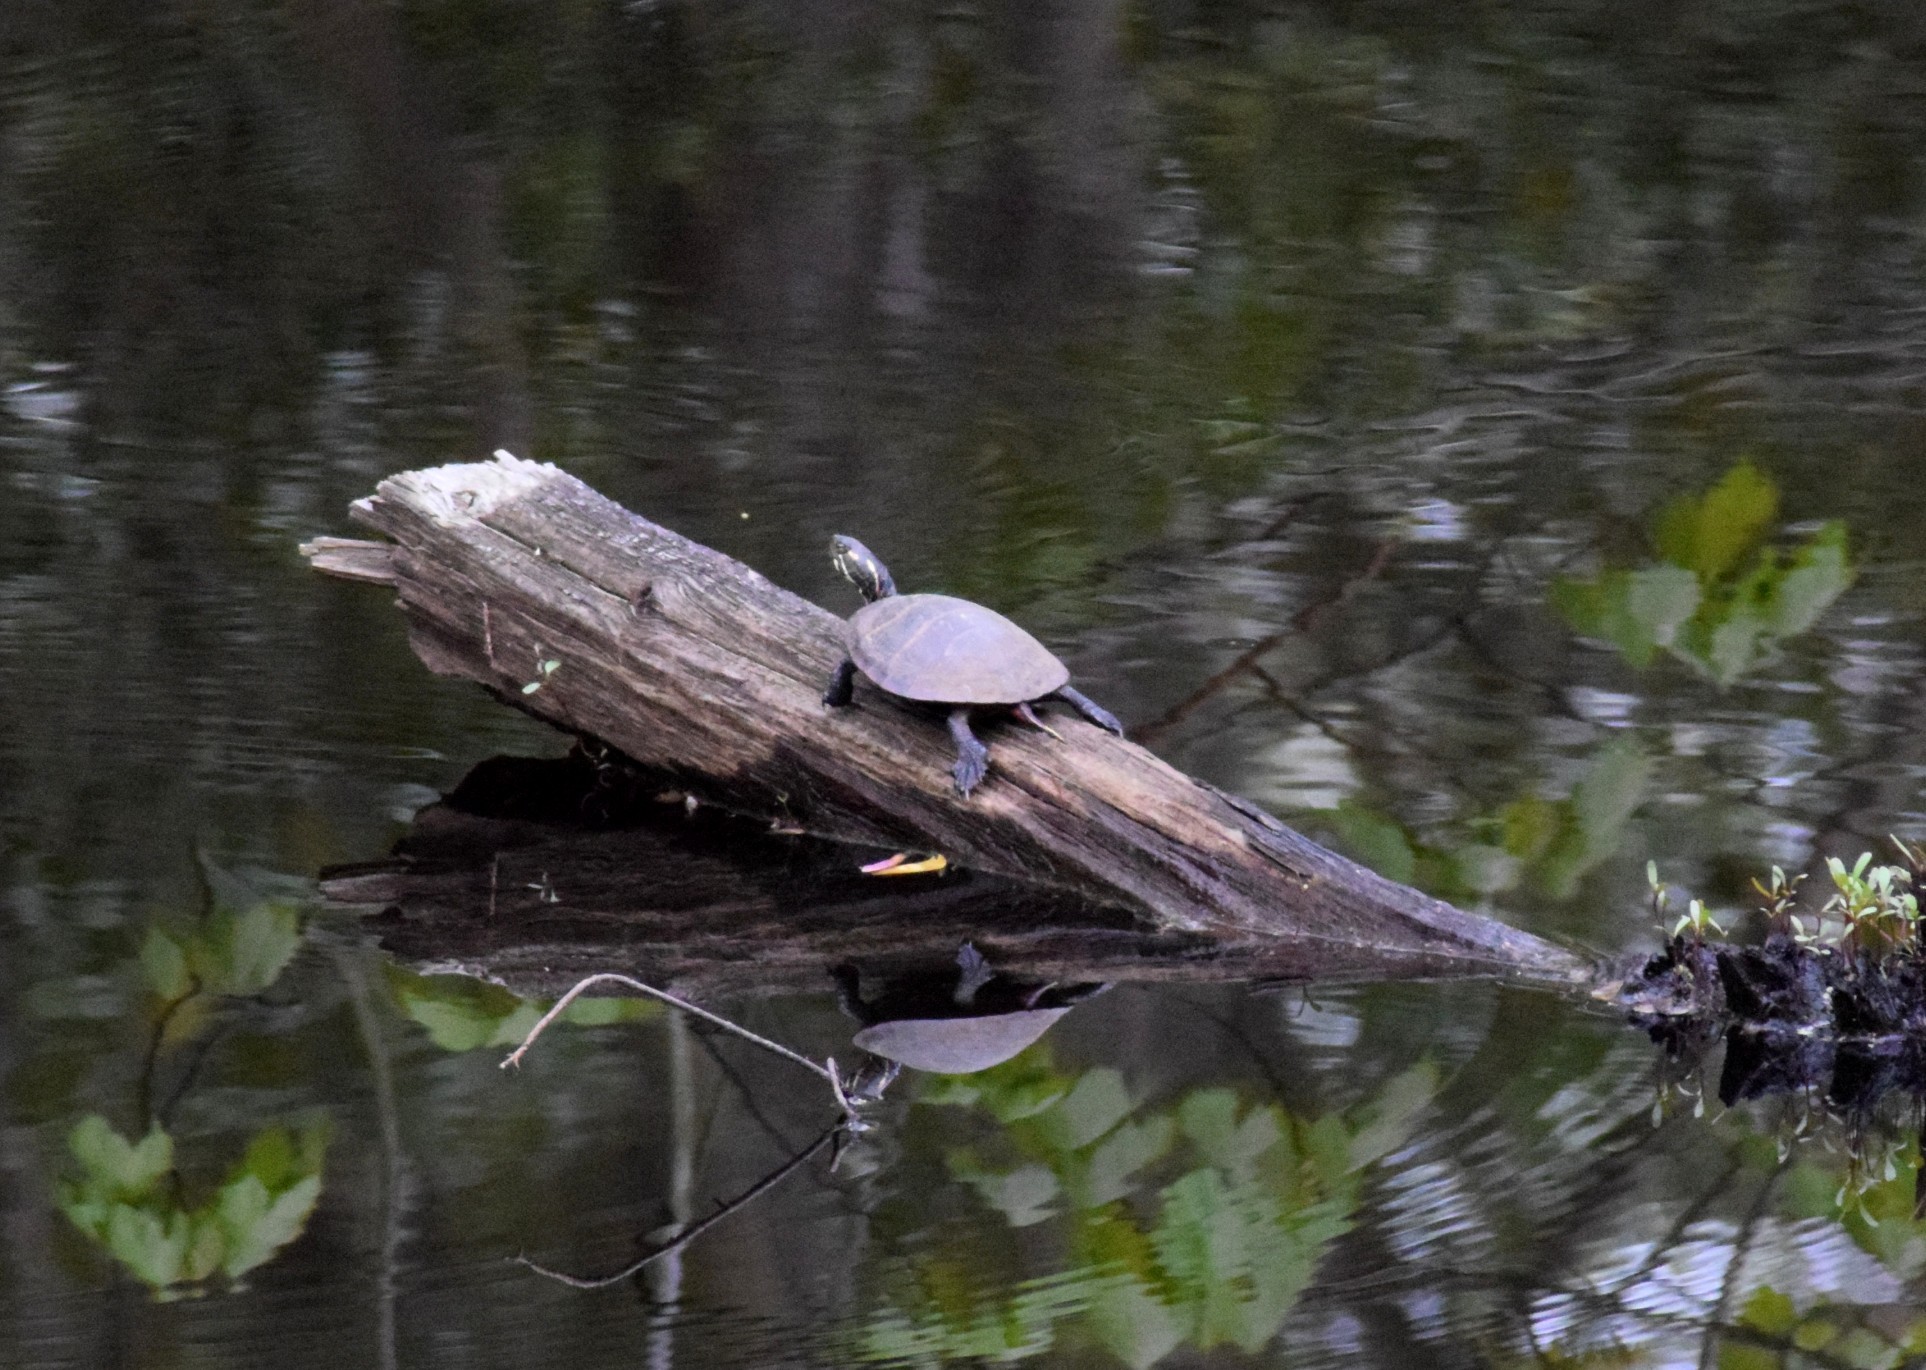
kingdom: Animalia
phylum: Chordata
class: Testudines
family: Emydidae
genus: Chrysemys
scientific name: Chrysemys picta
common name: Painted turtle
